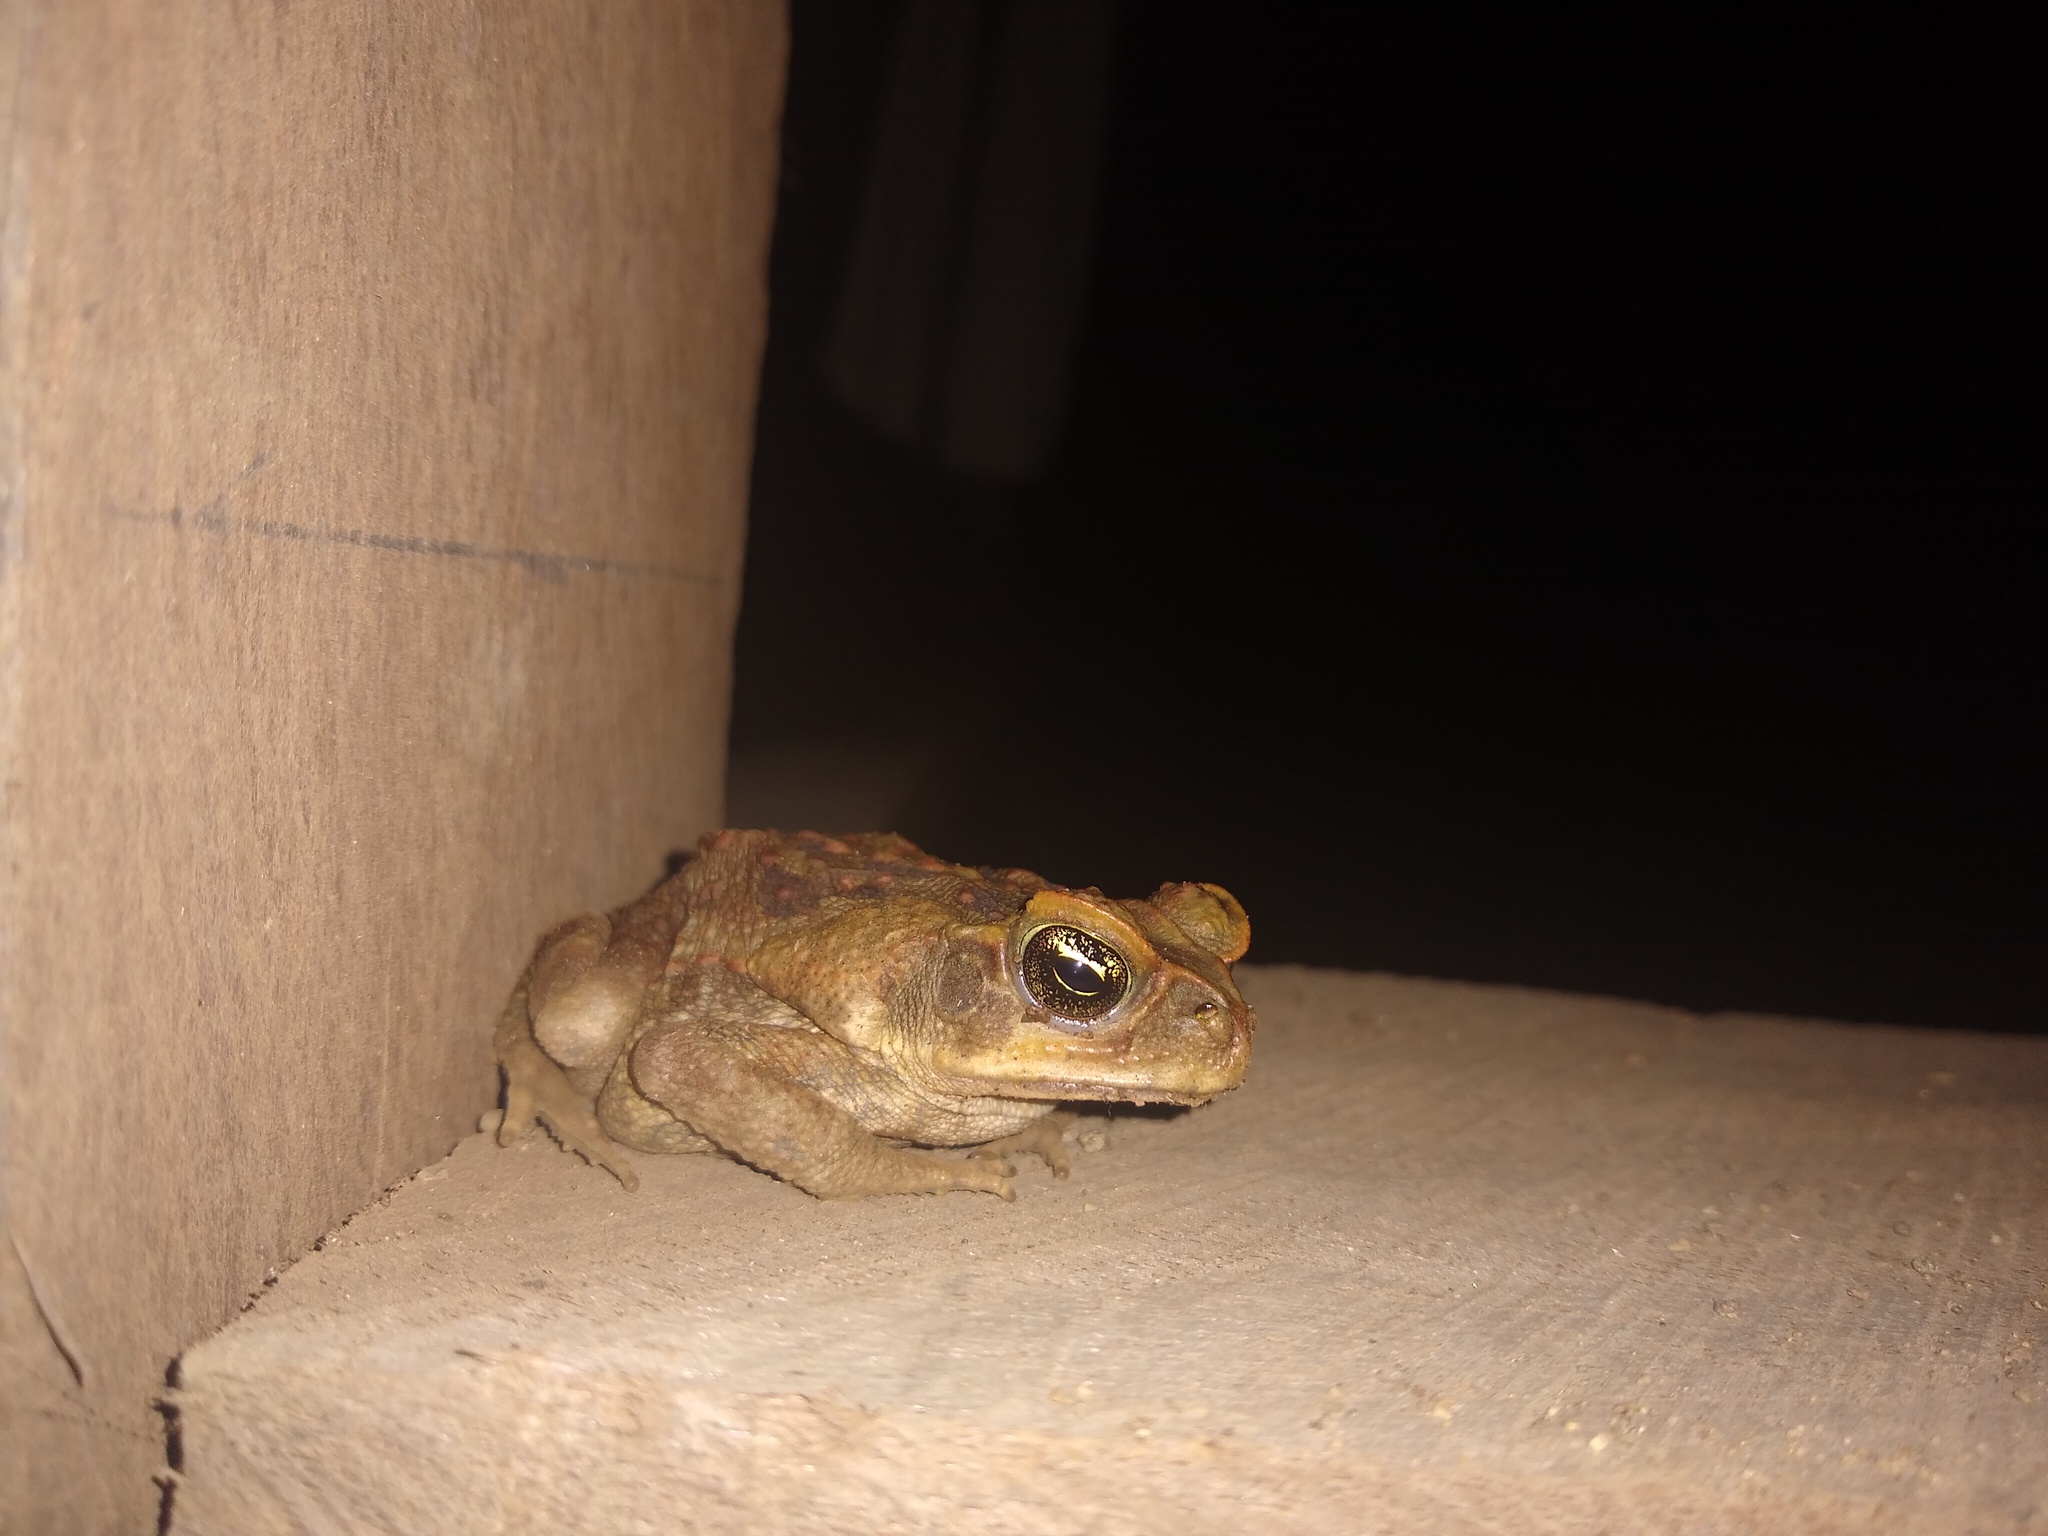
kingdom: Animalia
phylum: Chordata
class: Amphibia
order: Anura
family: Bufonidae
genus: Rhinella
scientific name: Rhinella horribilis
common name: Mesoamerican cane toad
